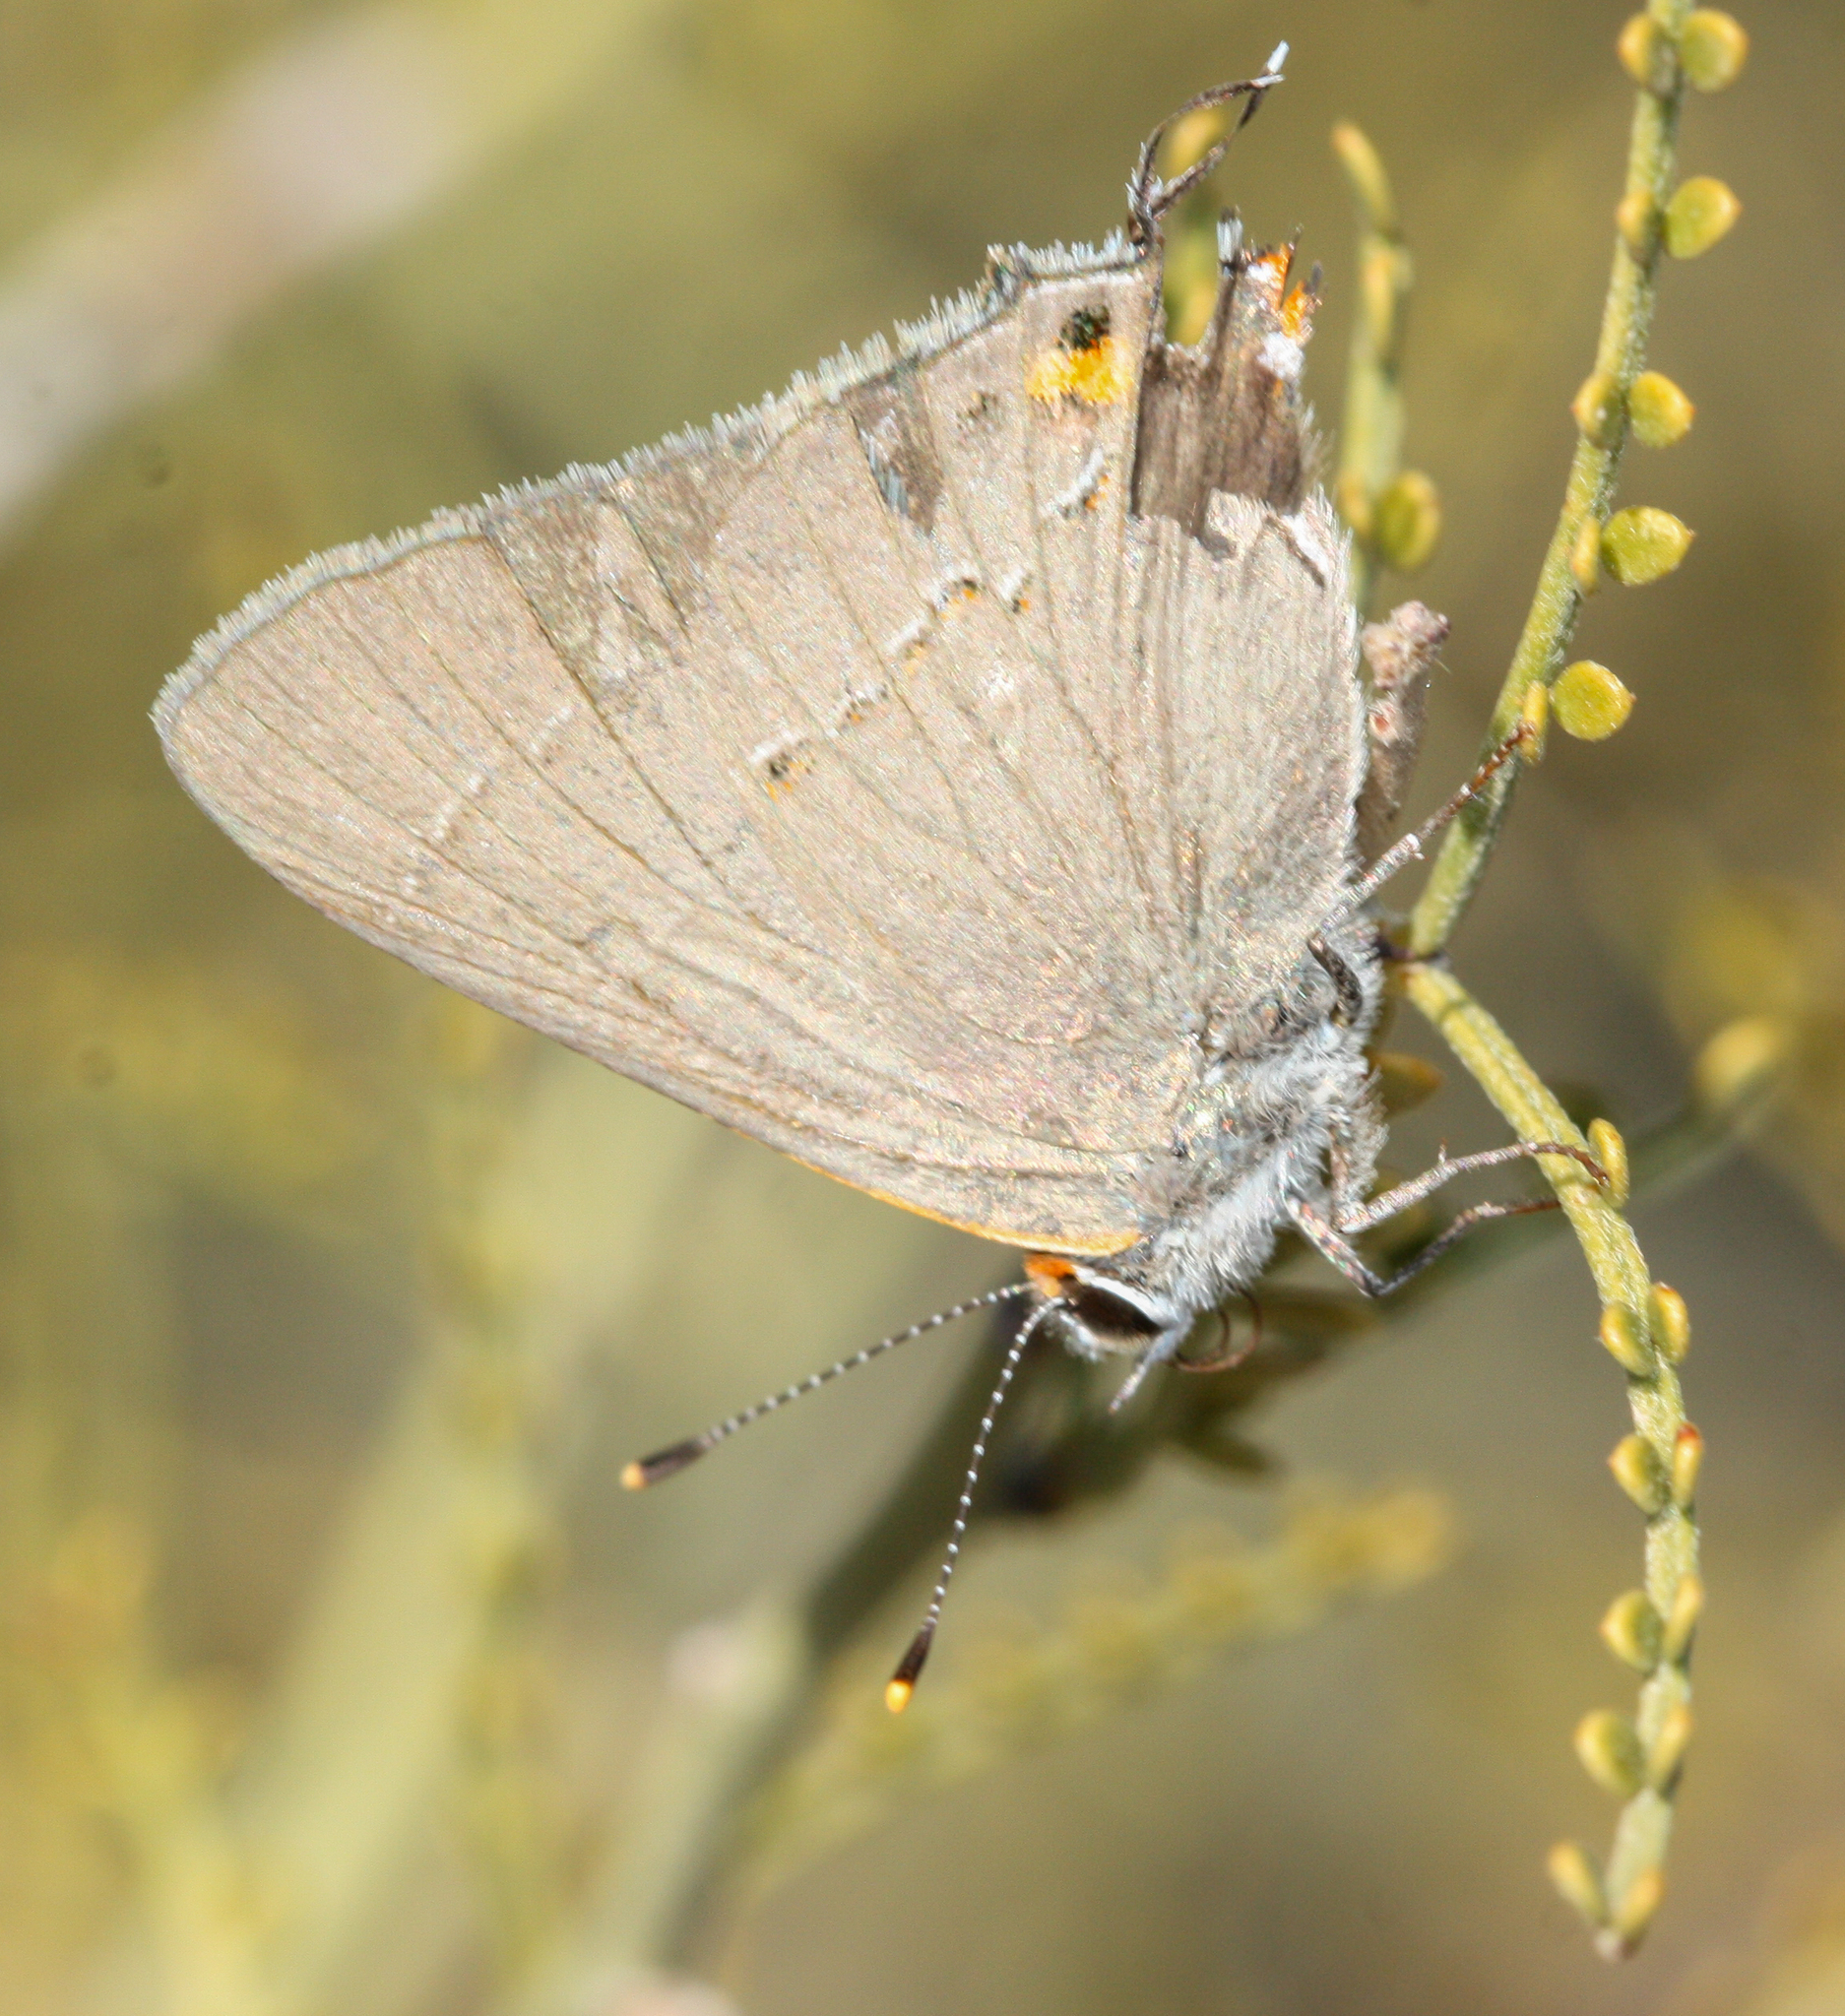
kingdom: Animalia
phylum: Arthropoda
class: Insecta
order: Lepidoptera
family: Lycaenidae
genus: Strymon
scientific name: Strymon melinus
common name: Gray hairstreak
